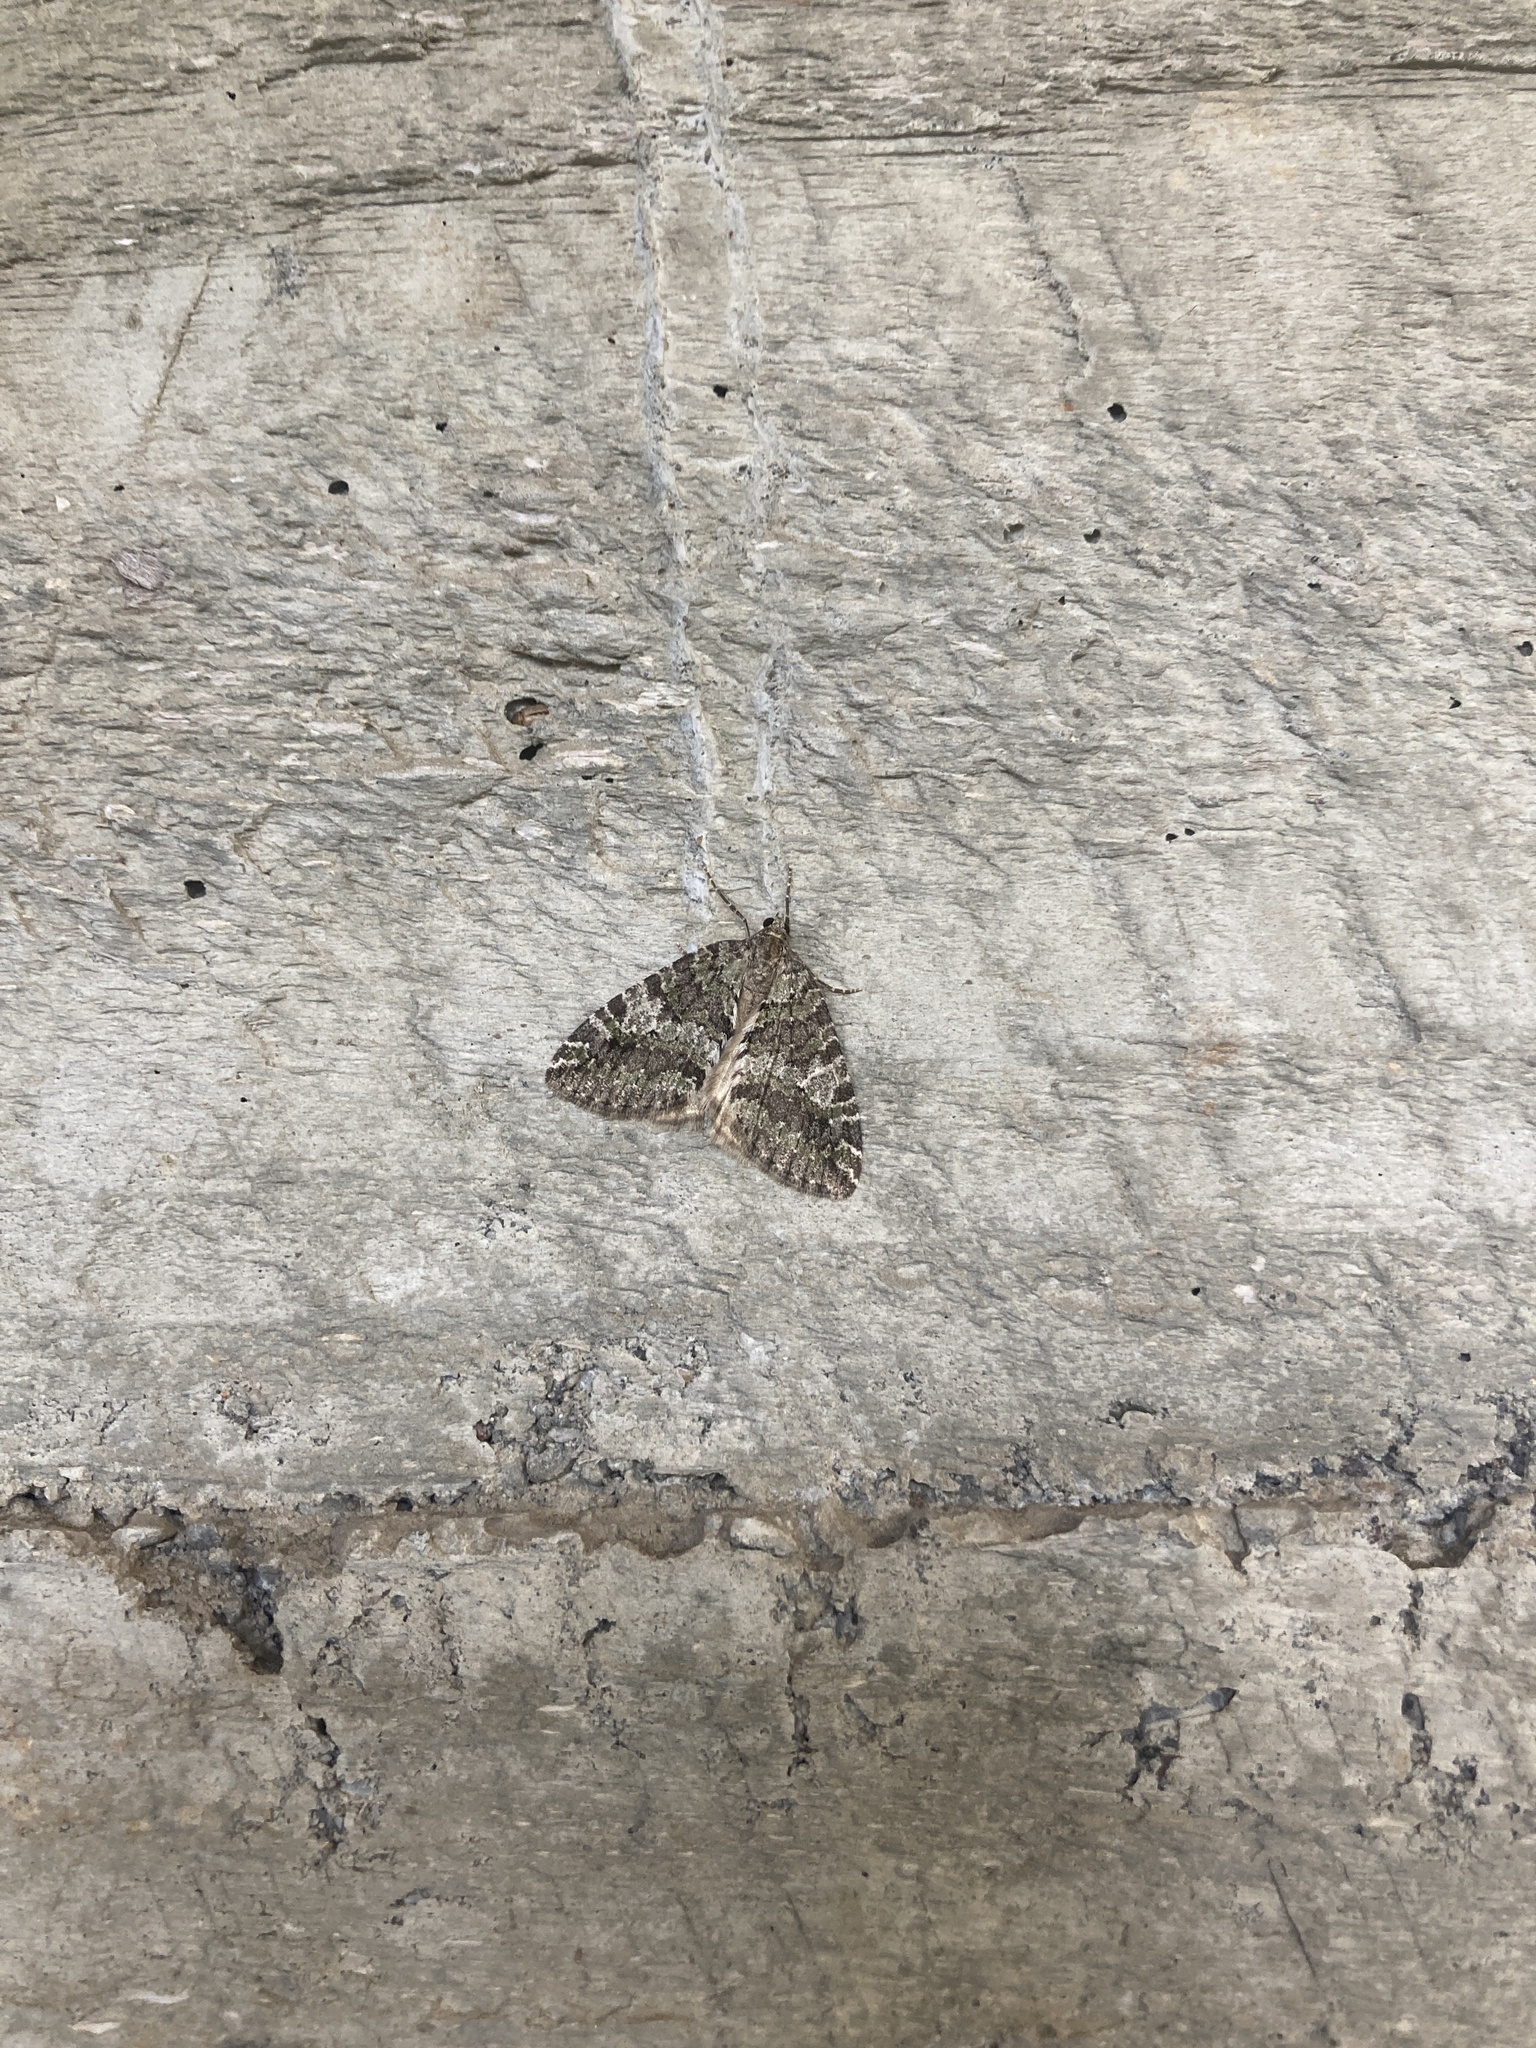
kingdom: Animalia
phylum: Arthropoda
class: Insecta
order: Lepidoptera
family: Geometridae
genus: Hydriomena
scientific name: Hydriomena nubilofasciata
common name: Oak winter highflier moth
